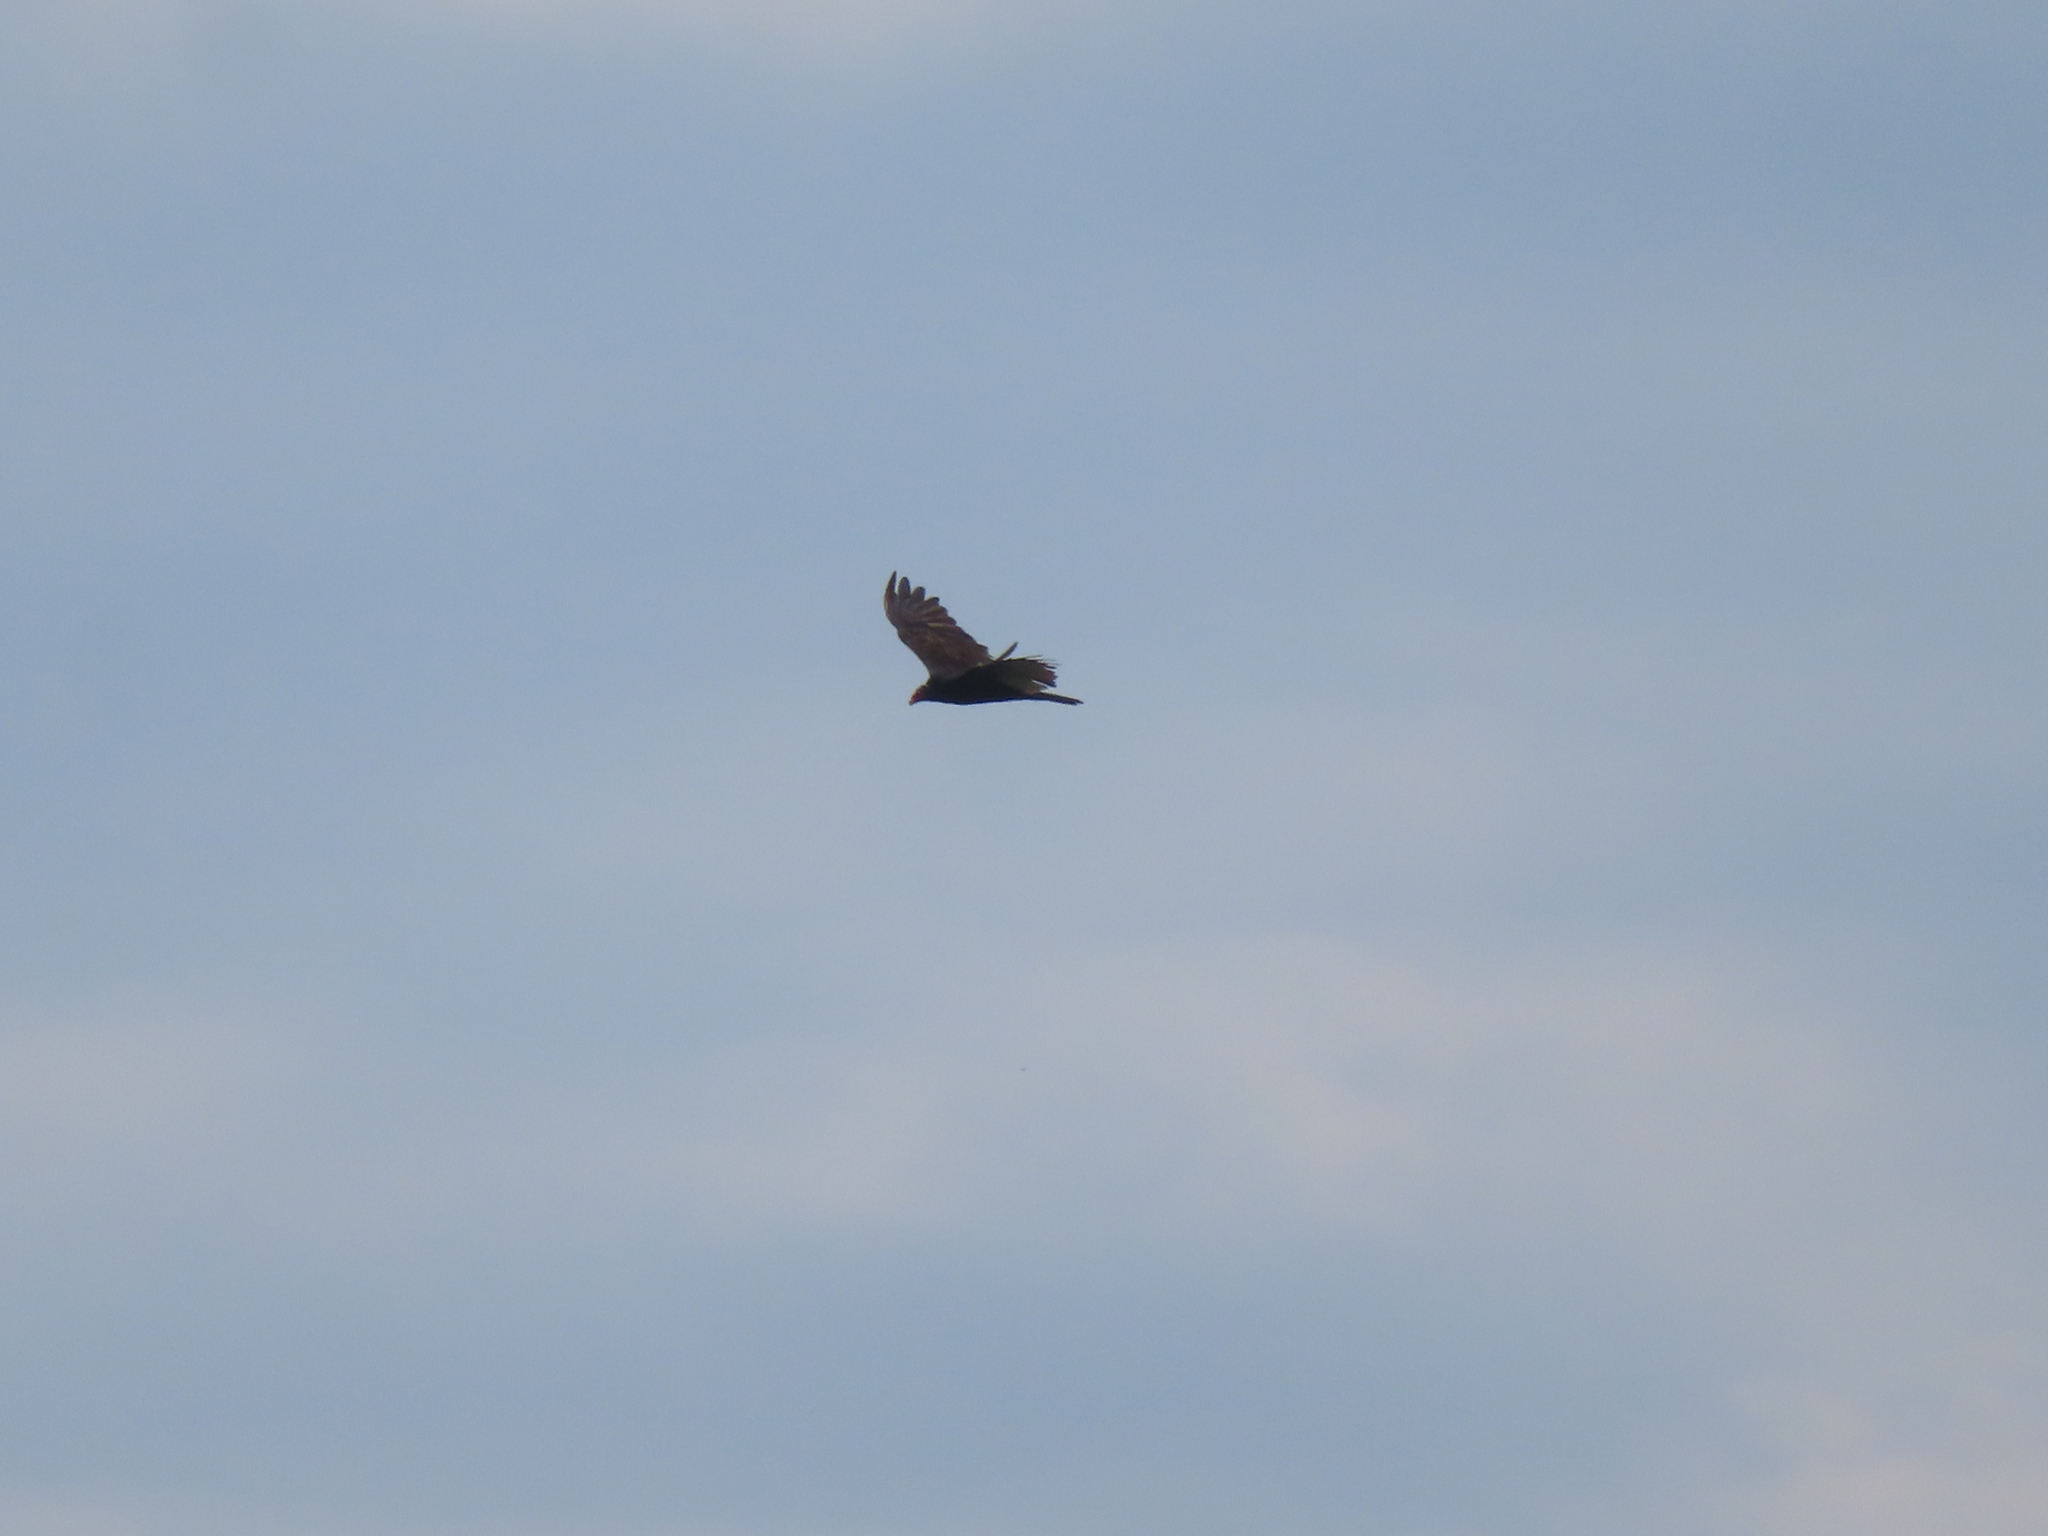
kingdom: Animalia
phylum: Chordata
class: Aves
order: Accipitriformes
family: Cathartidae
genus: Cathartes
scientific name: Cathartes aura
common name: Turkey vulture
